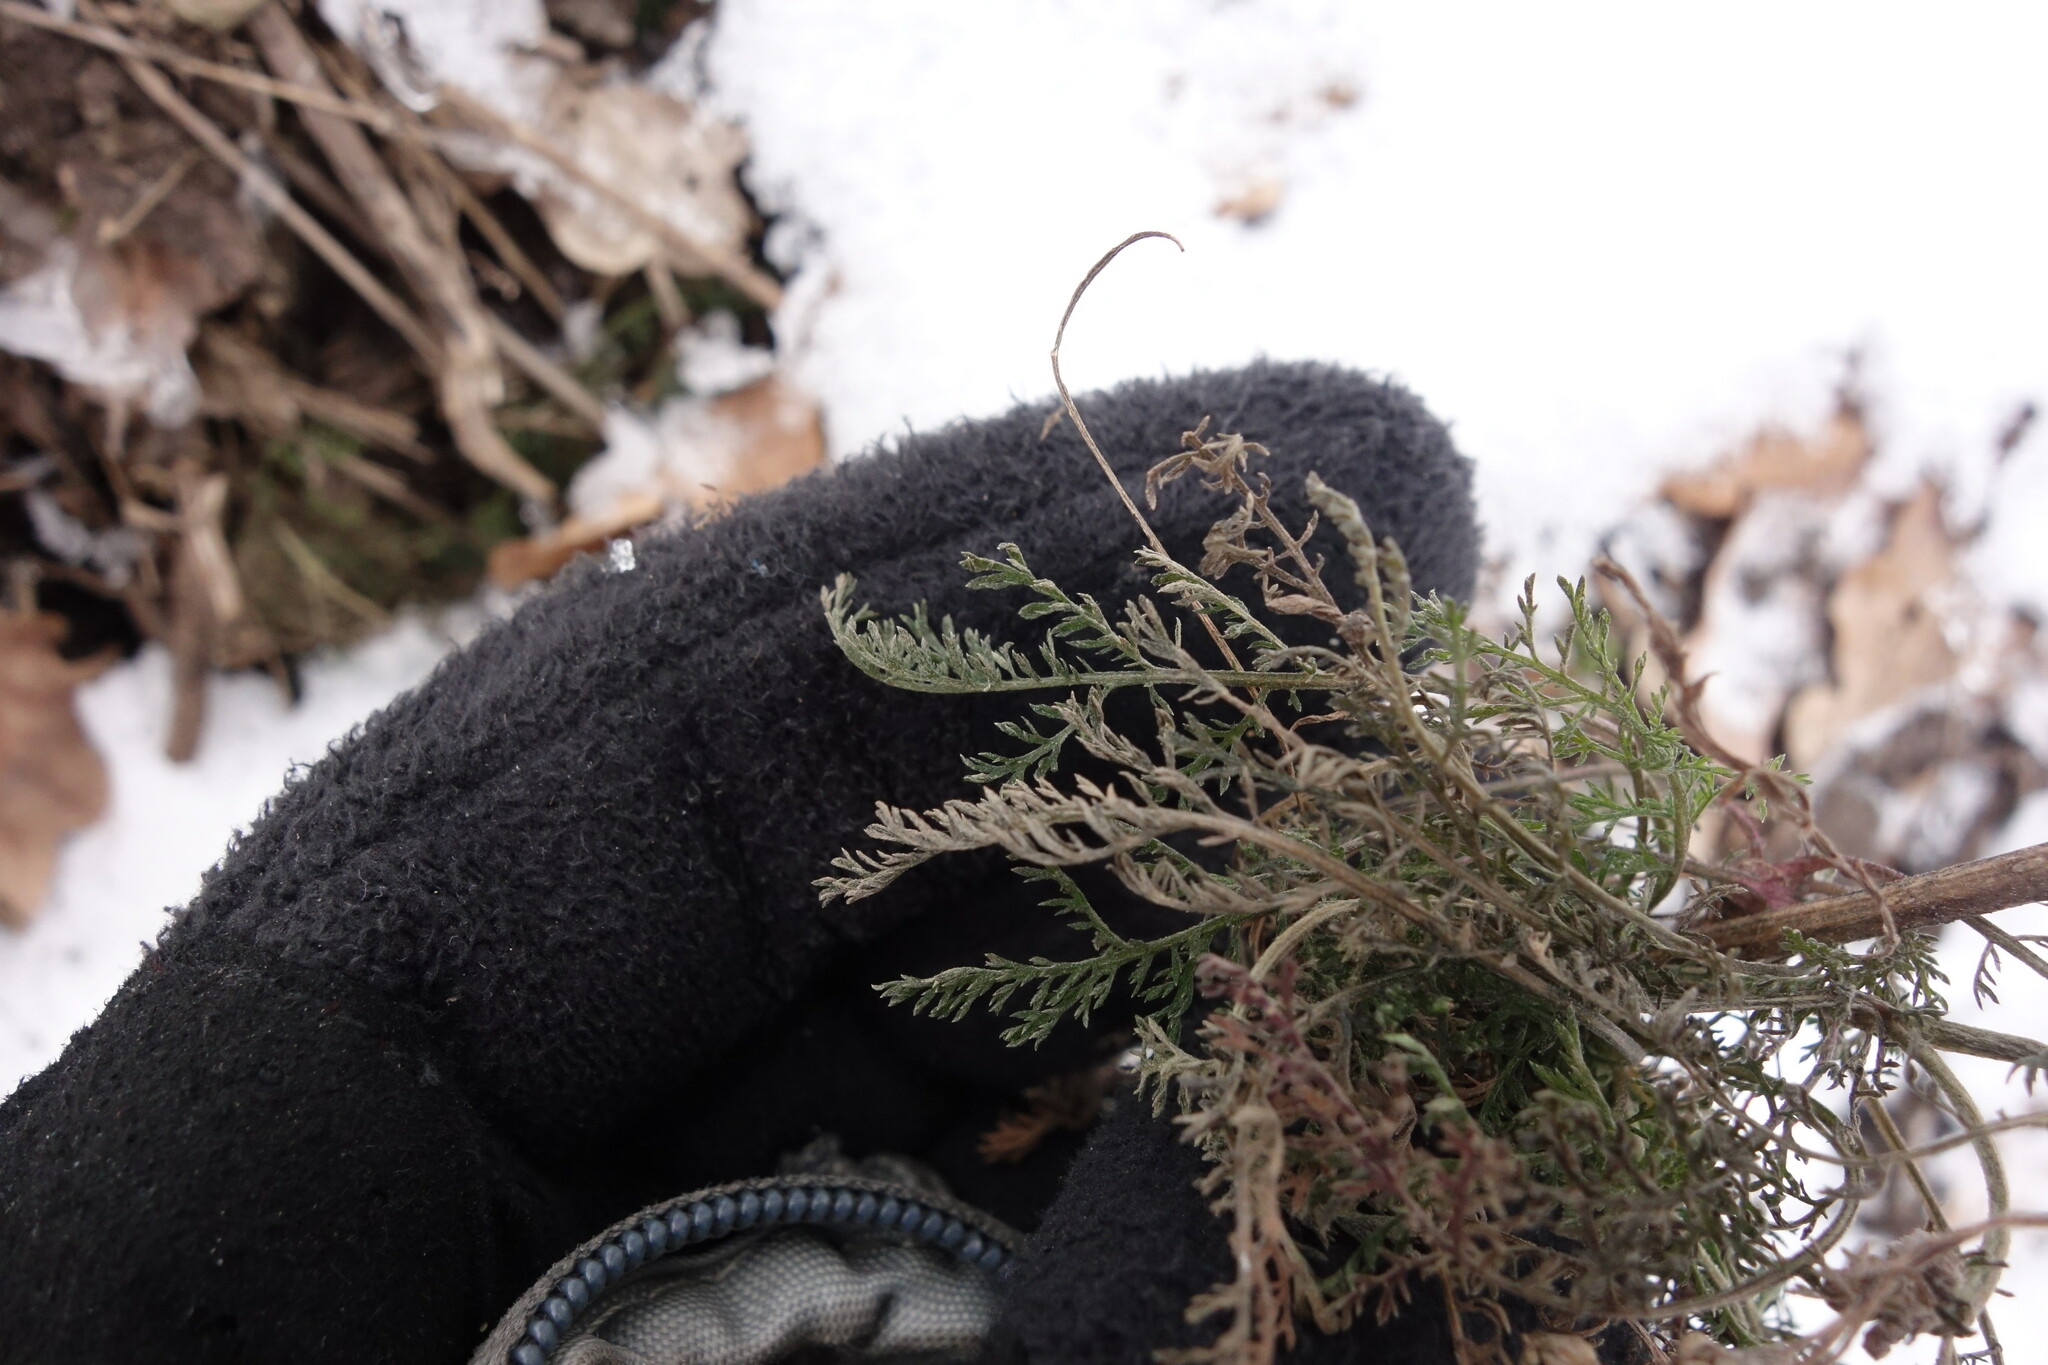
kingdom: Plantae
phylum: Tracheophyta
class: Magnoliopsida
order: Asterales
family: Asteraceae
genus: Achillea
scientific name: Achillea nobilis
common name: Noble yarrow
